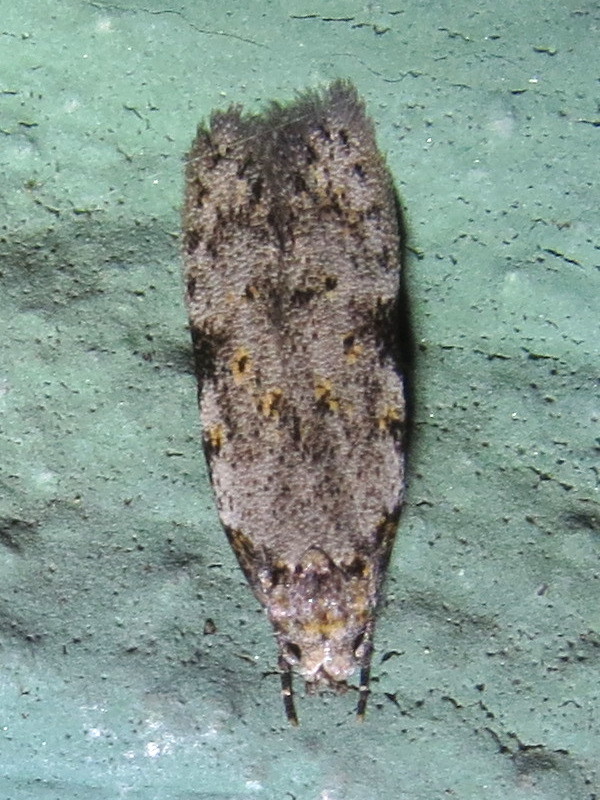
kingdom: Animalia
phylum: Arthropoda
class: Insecta
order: Lepidoptera
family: Autostichidae
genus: Taygete
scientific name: Taygete attributella
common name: Triangle-marked twirler moth
